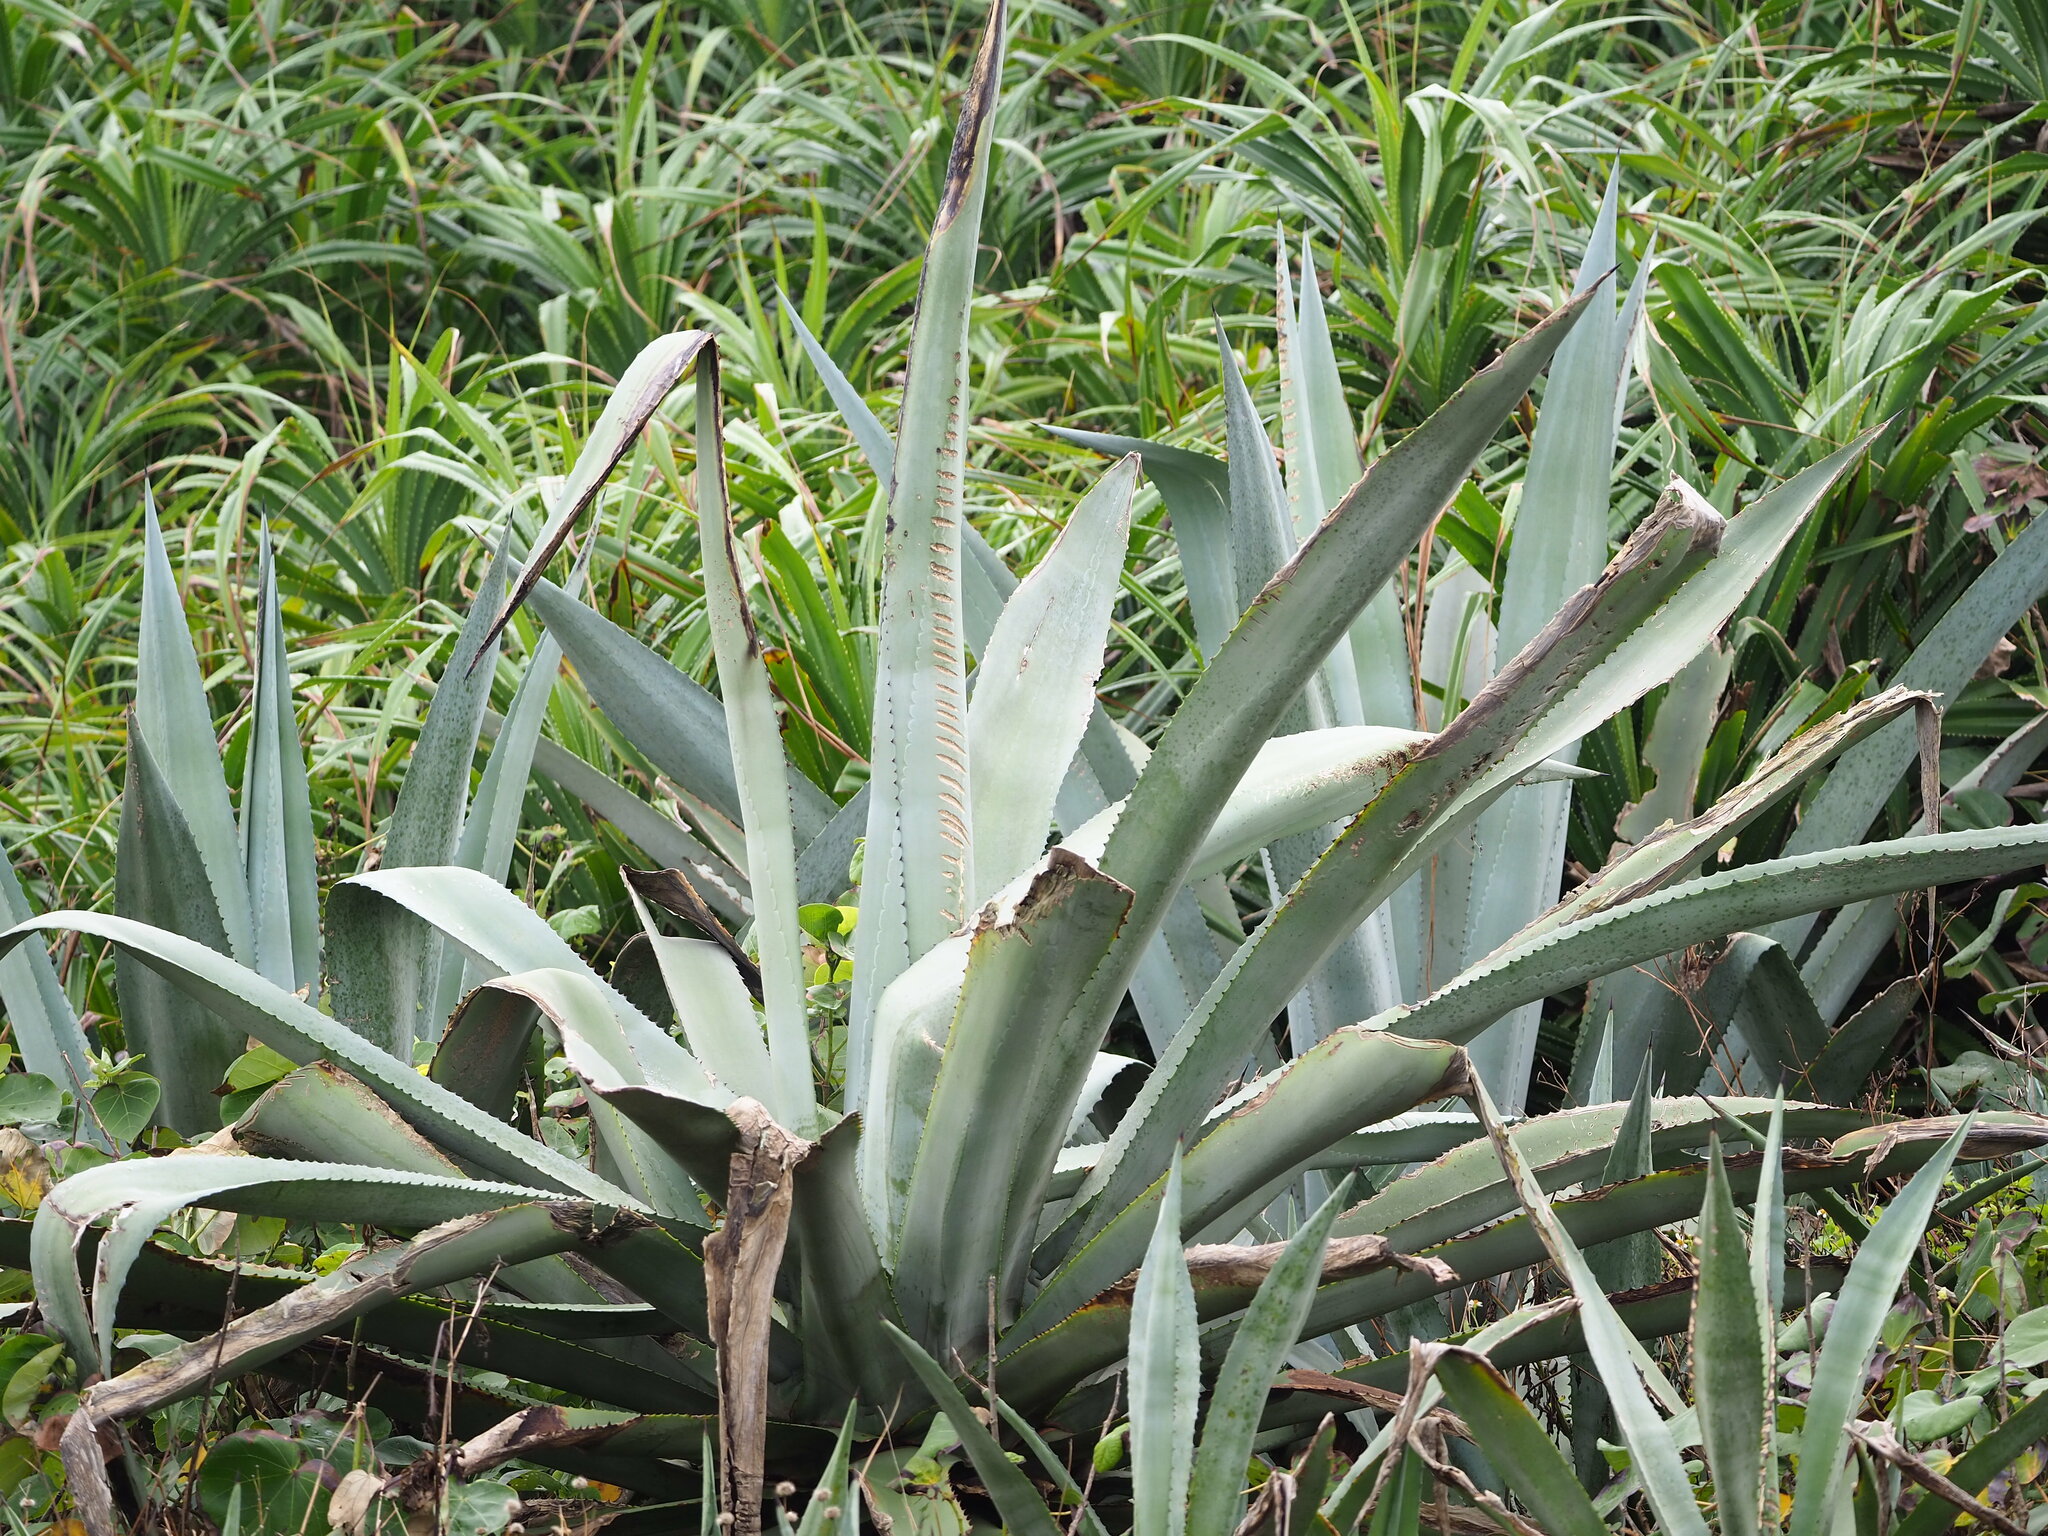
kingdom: Plantae
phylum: Tracheophyta
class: Liliopsida
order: Asparagales
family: Asparagaceae
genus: Agave
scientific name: Agave americana
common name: Centuryplant
